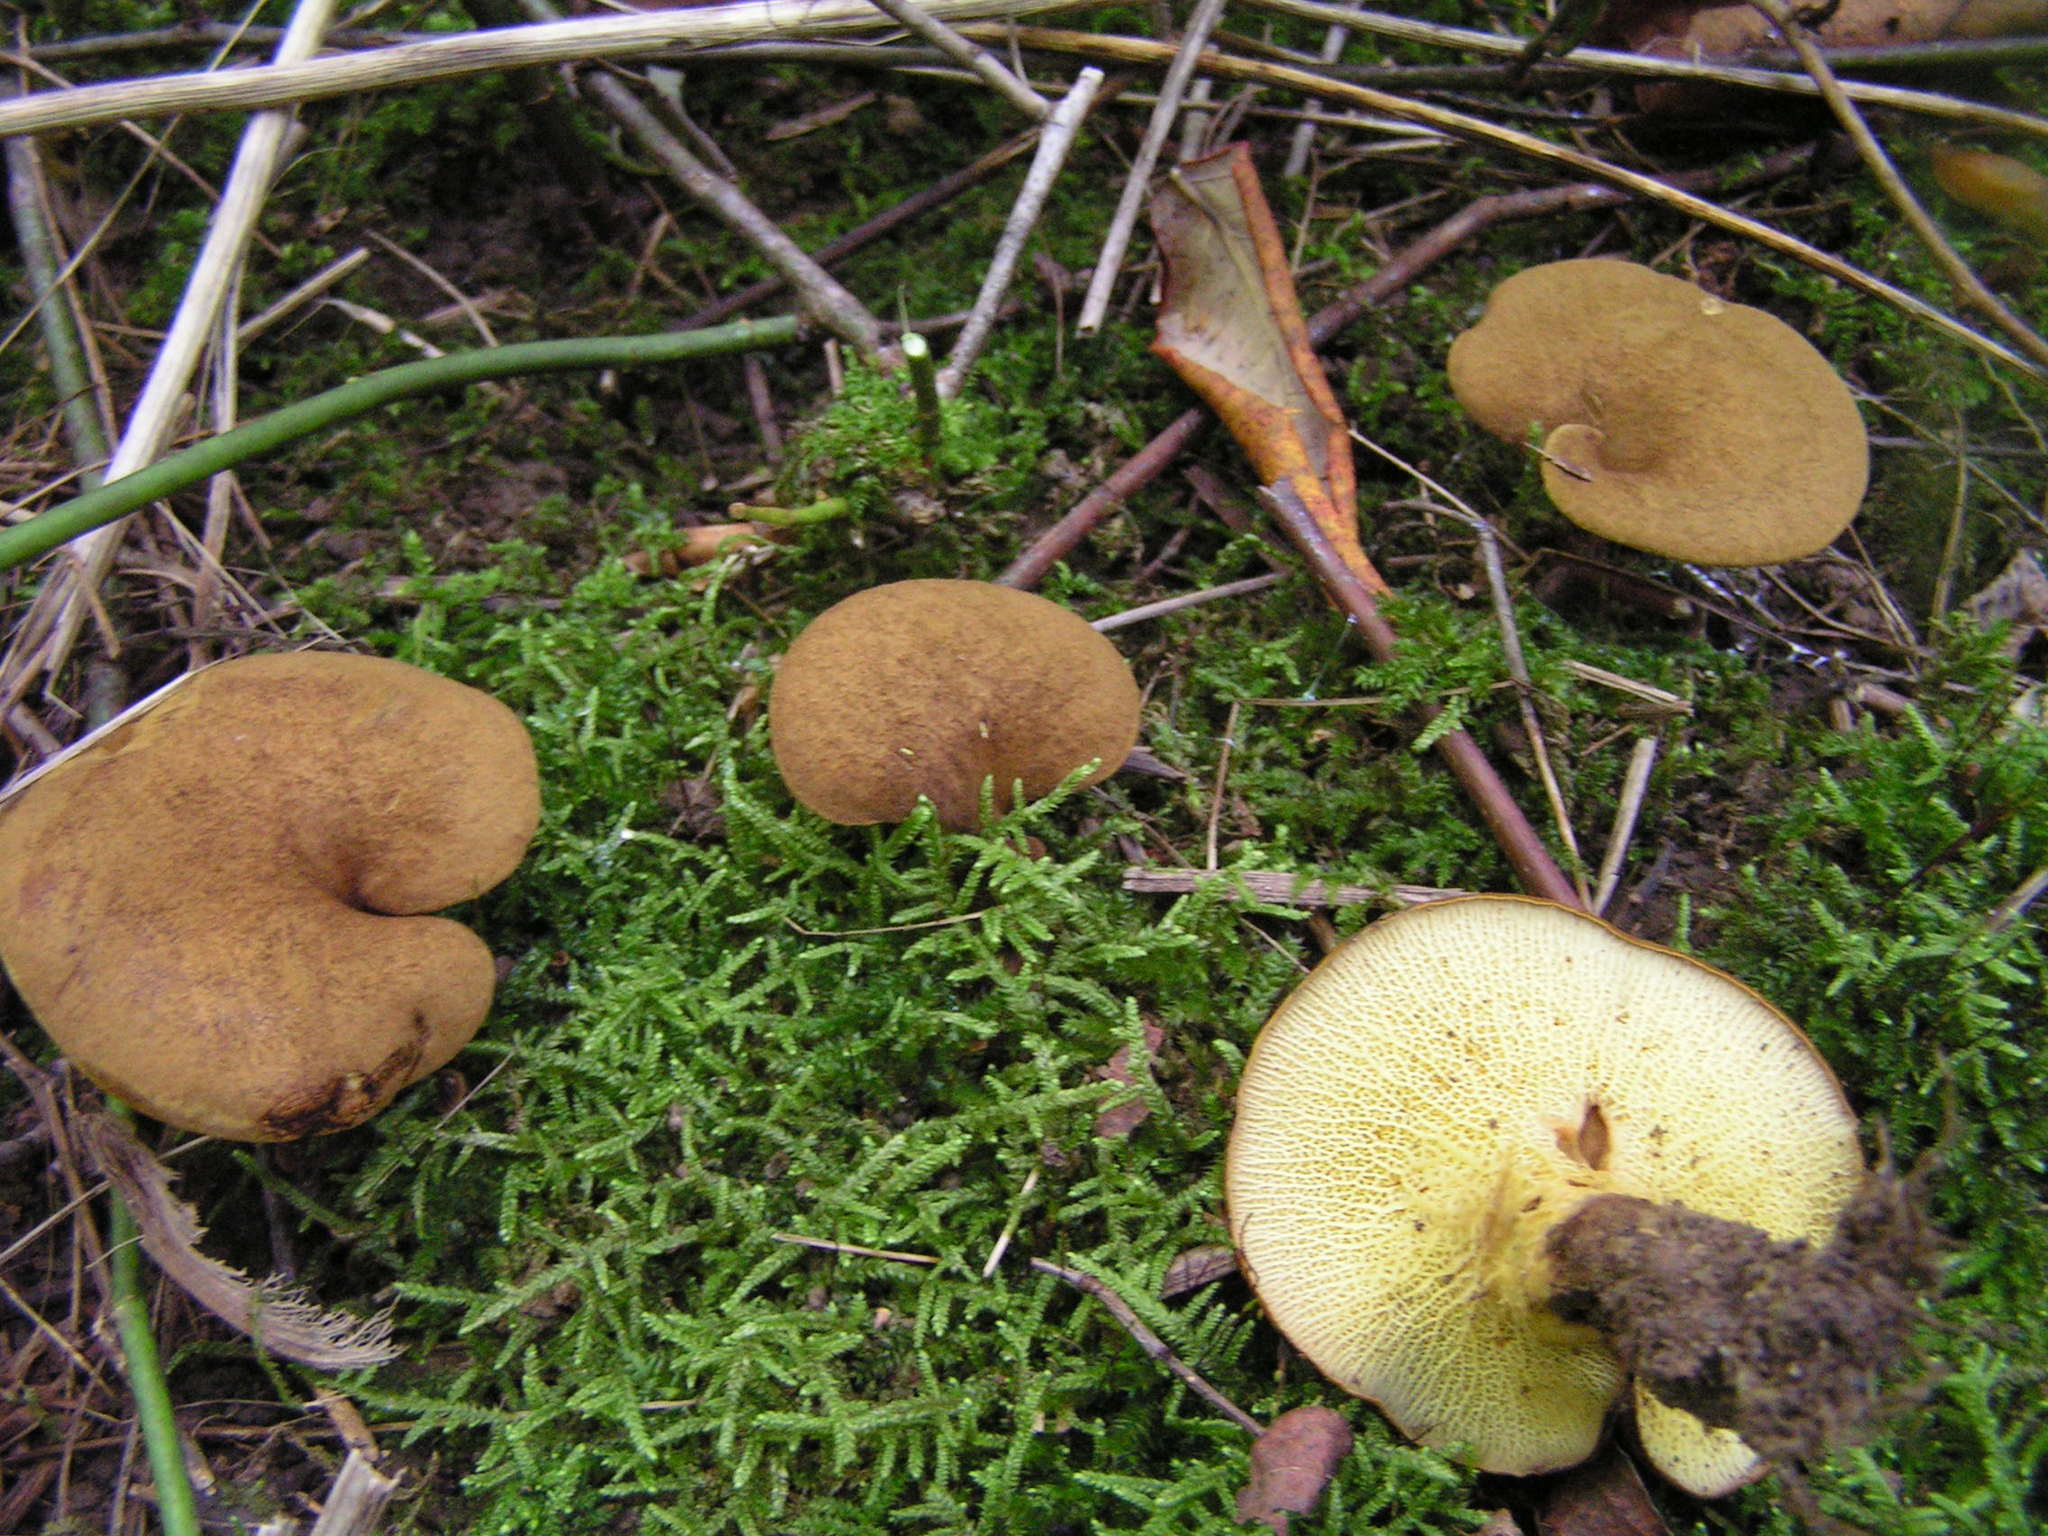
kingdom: Fungi
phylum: Basidiomycota
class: Agaricomycetes
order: Boletales
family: Boletinellaceae
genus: Boletinellus
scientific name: Boletinellus merulioides
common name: Ash tree bolete
